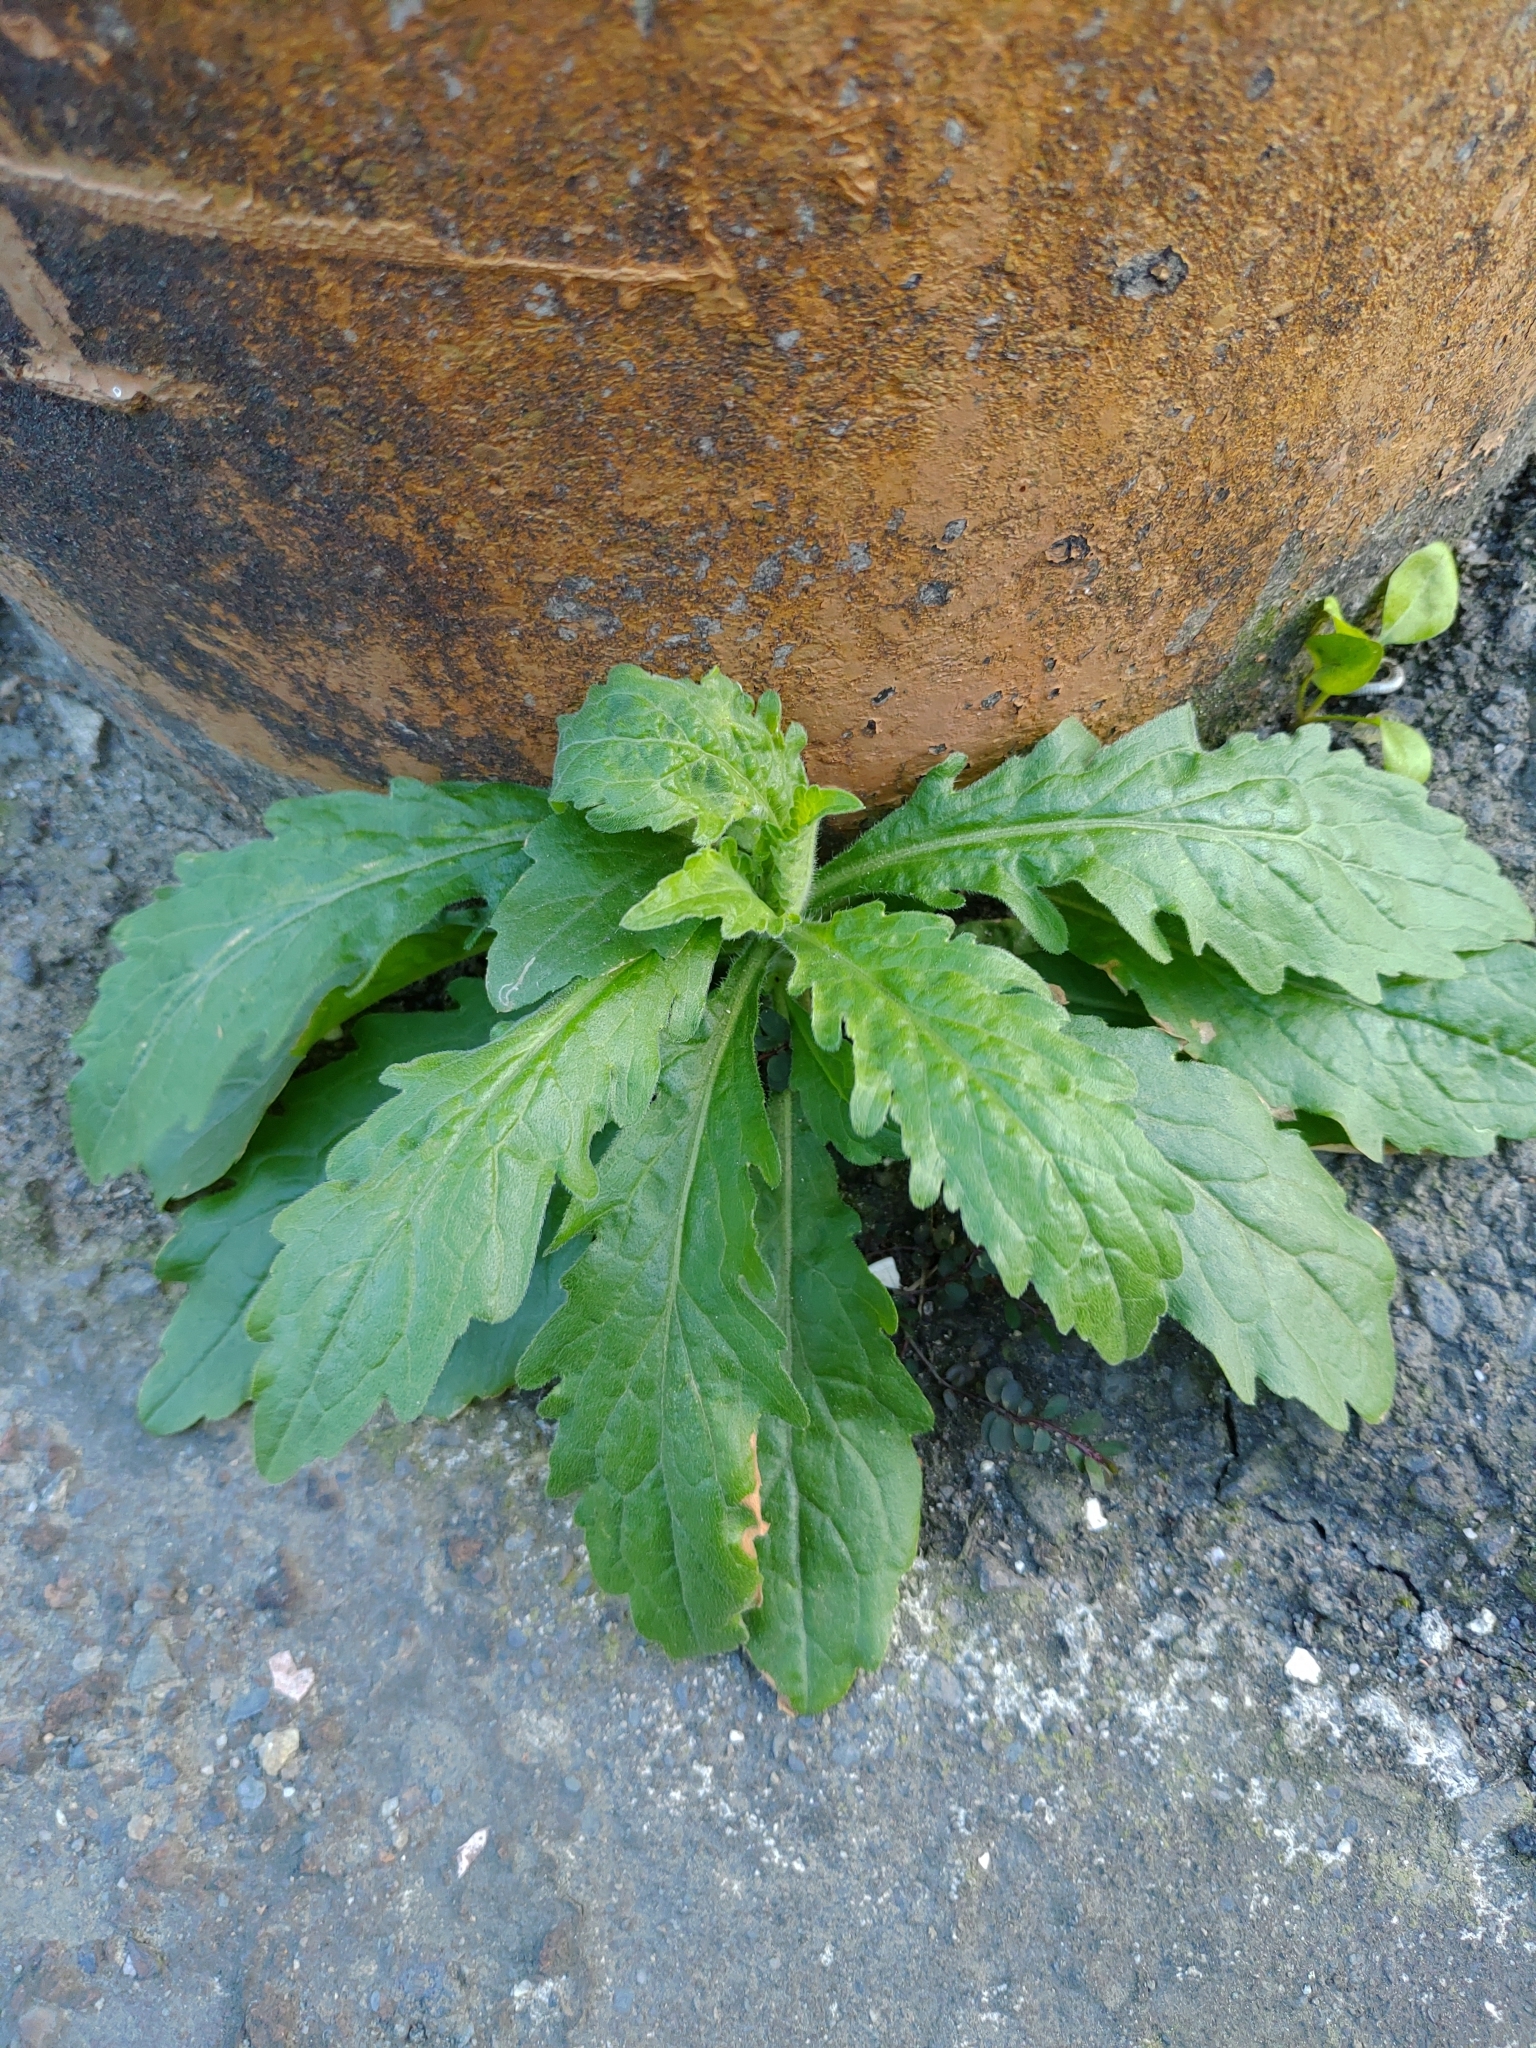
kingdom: Plantae
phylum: Tracheophyta
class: Magnoliopsida
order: Asterales
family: Asteraceae
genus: Erigeron
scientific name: Erigeron sumatrensis
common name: Daisy
